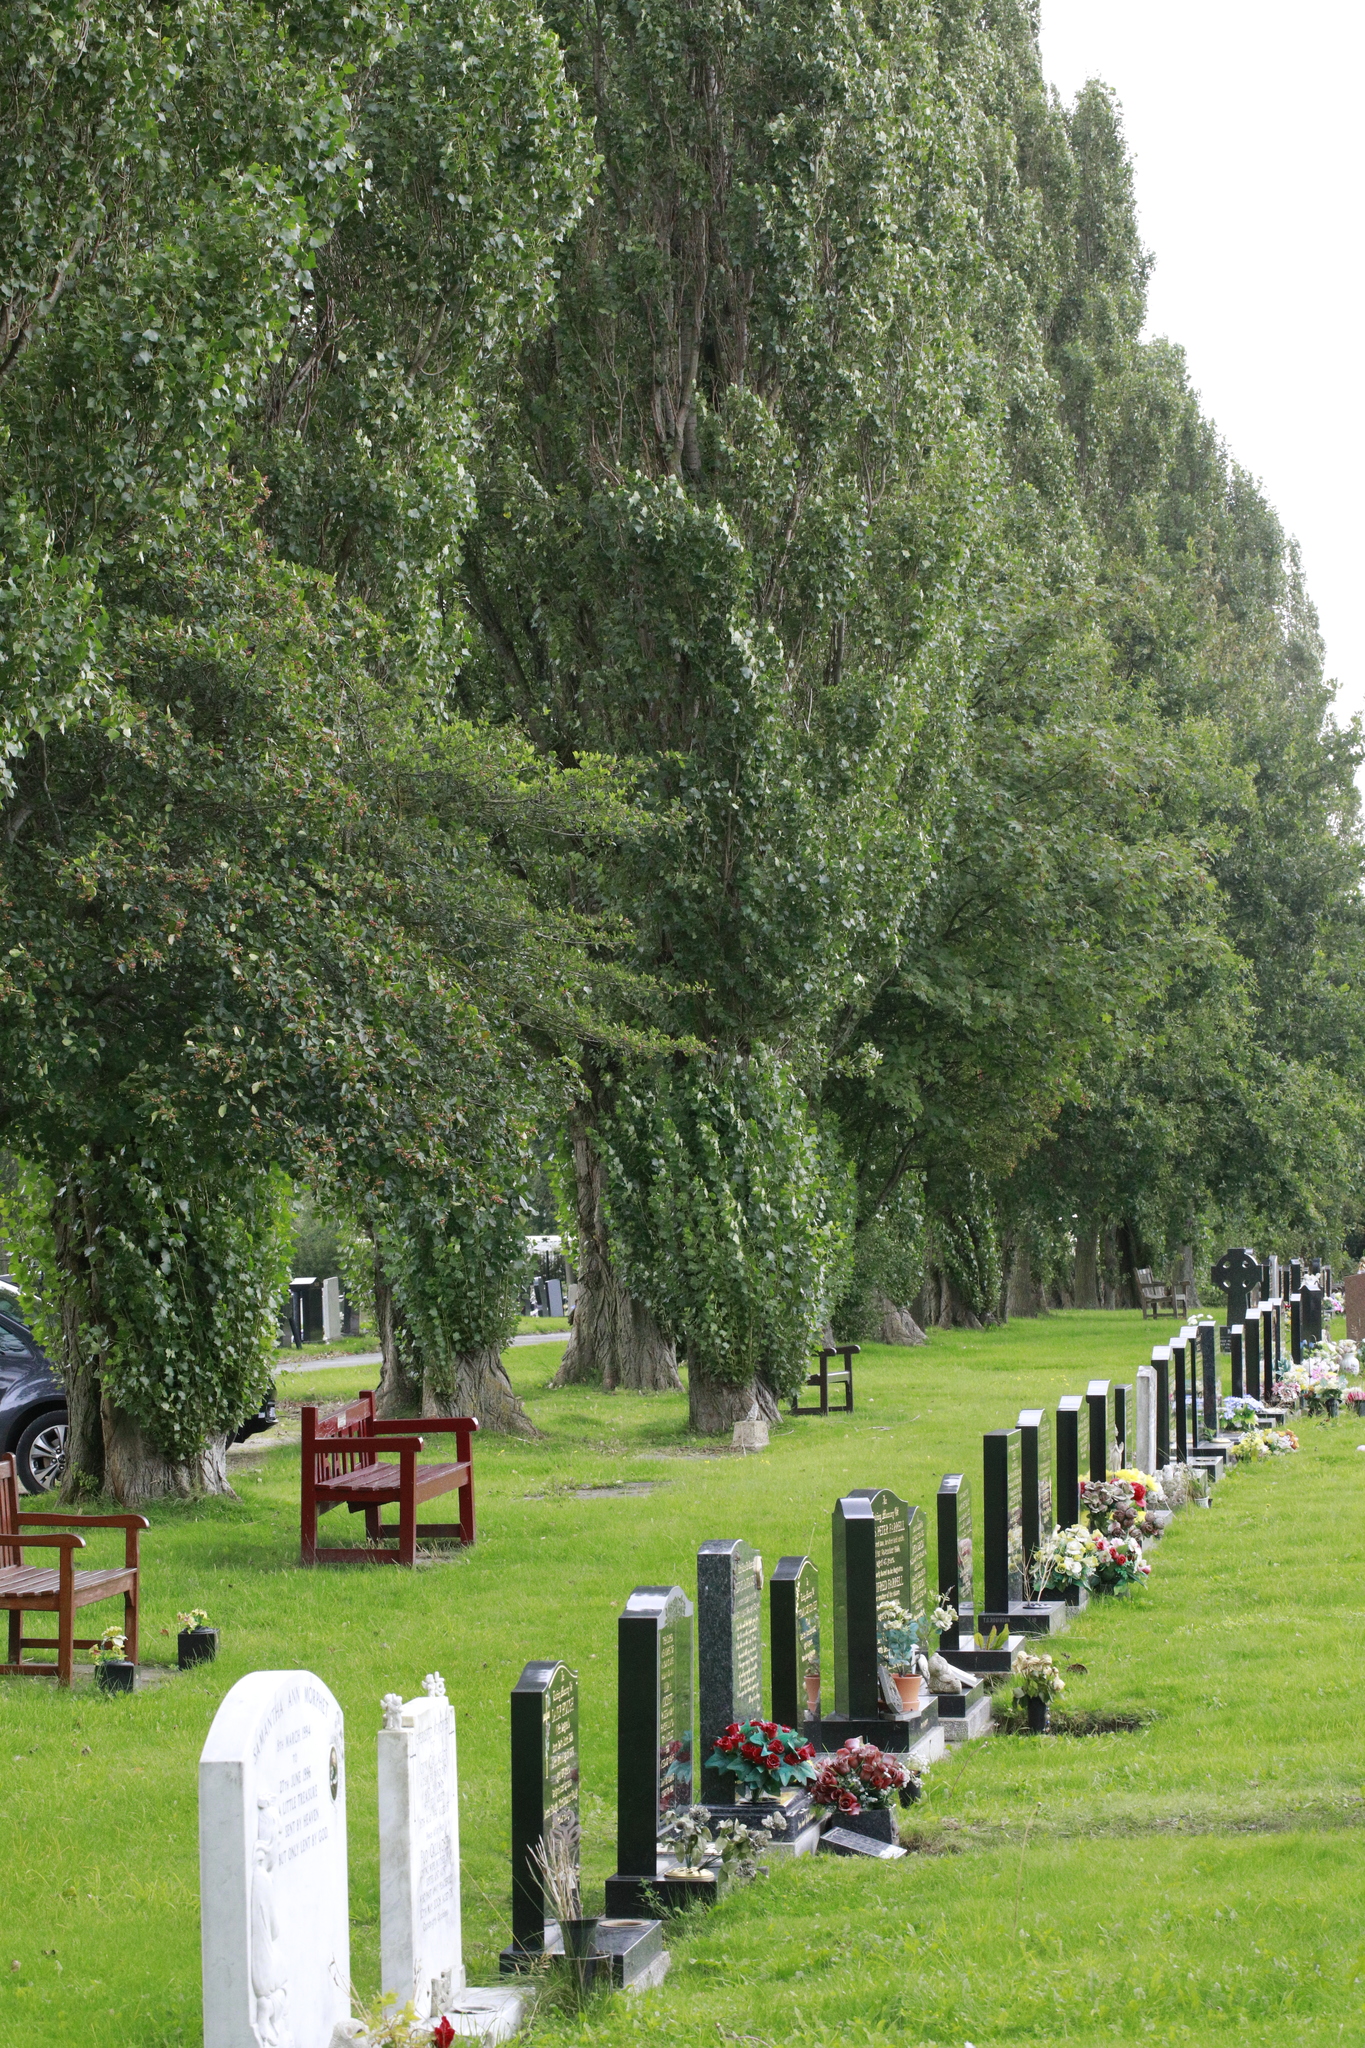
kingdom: Plantae
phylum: Tracheophyta
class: Magnoliopsida
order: Malpighiales
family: Salicaceae
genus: Populus
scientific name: Populus nigra
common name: Black poplar
